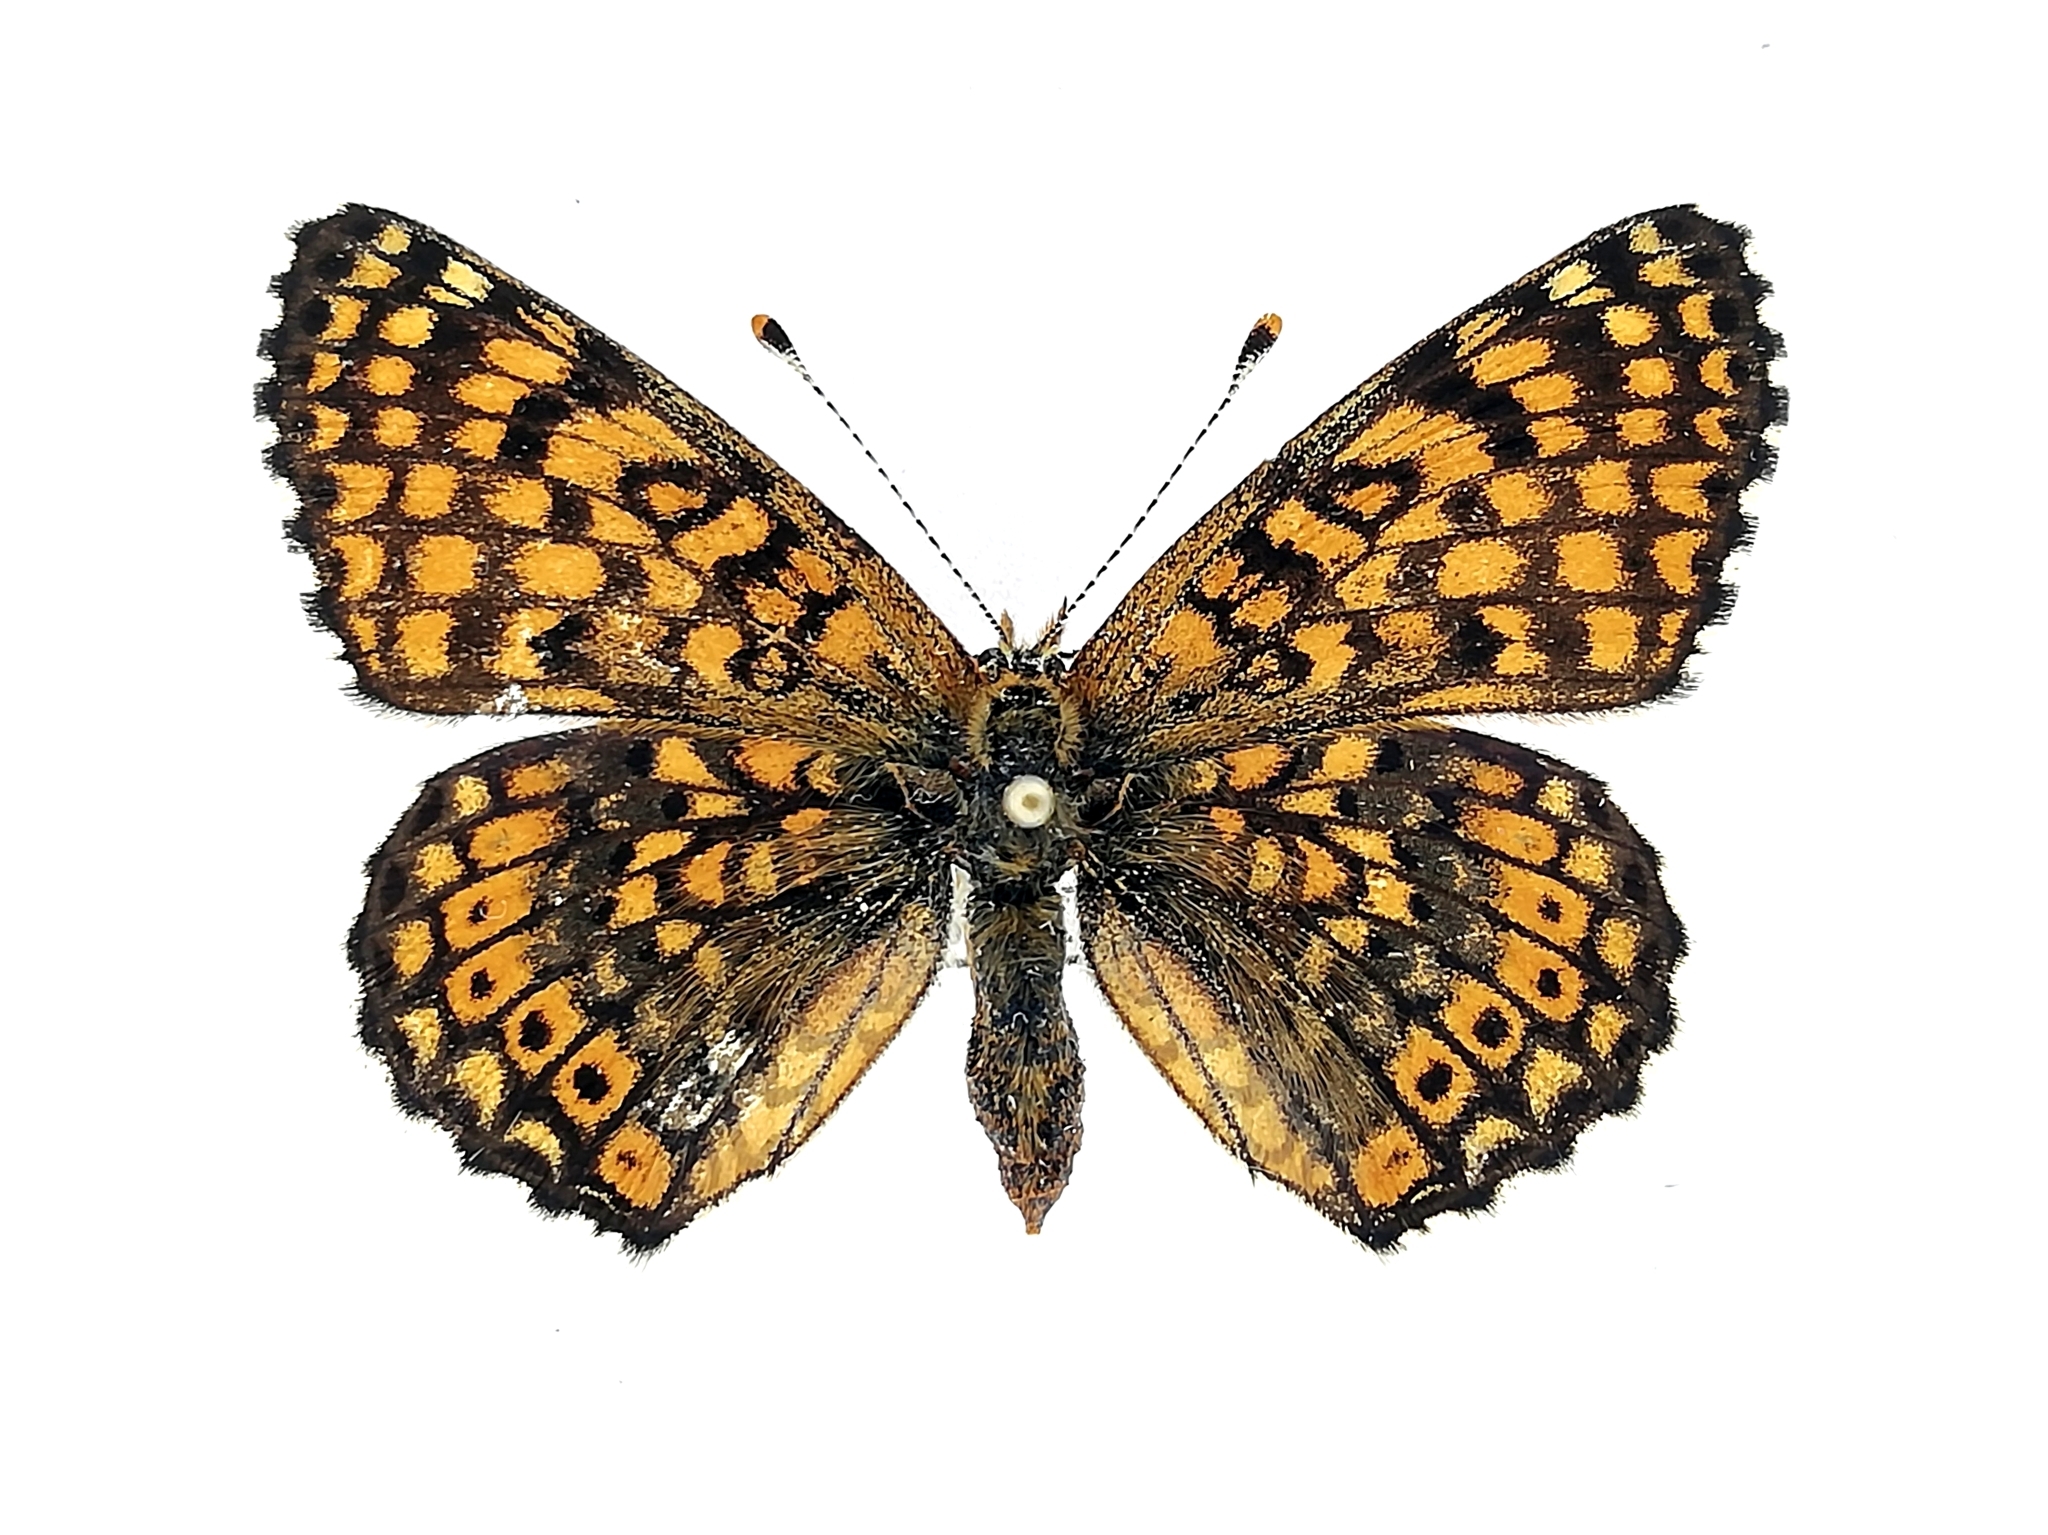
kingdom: Animalia
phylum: Arthropoda
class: Insecta
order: Lepidoptera
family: Nymphalidae
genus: Melitaea
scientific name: Melitaea cinxia
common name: Glanville fritillary
